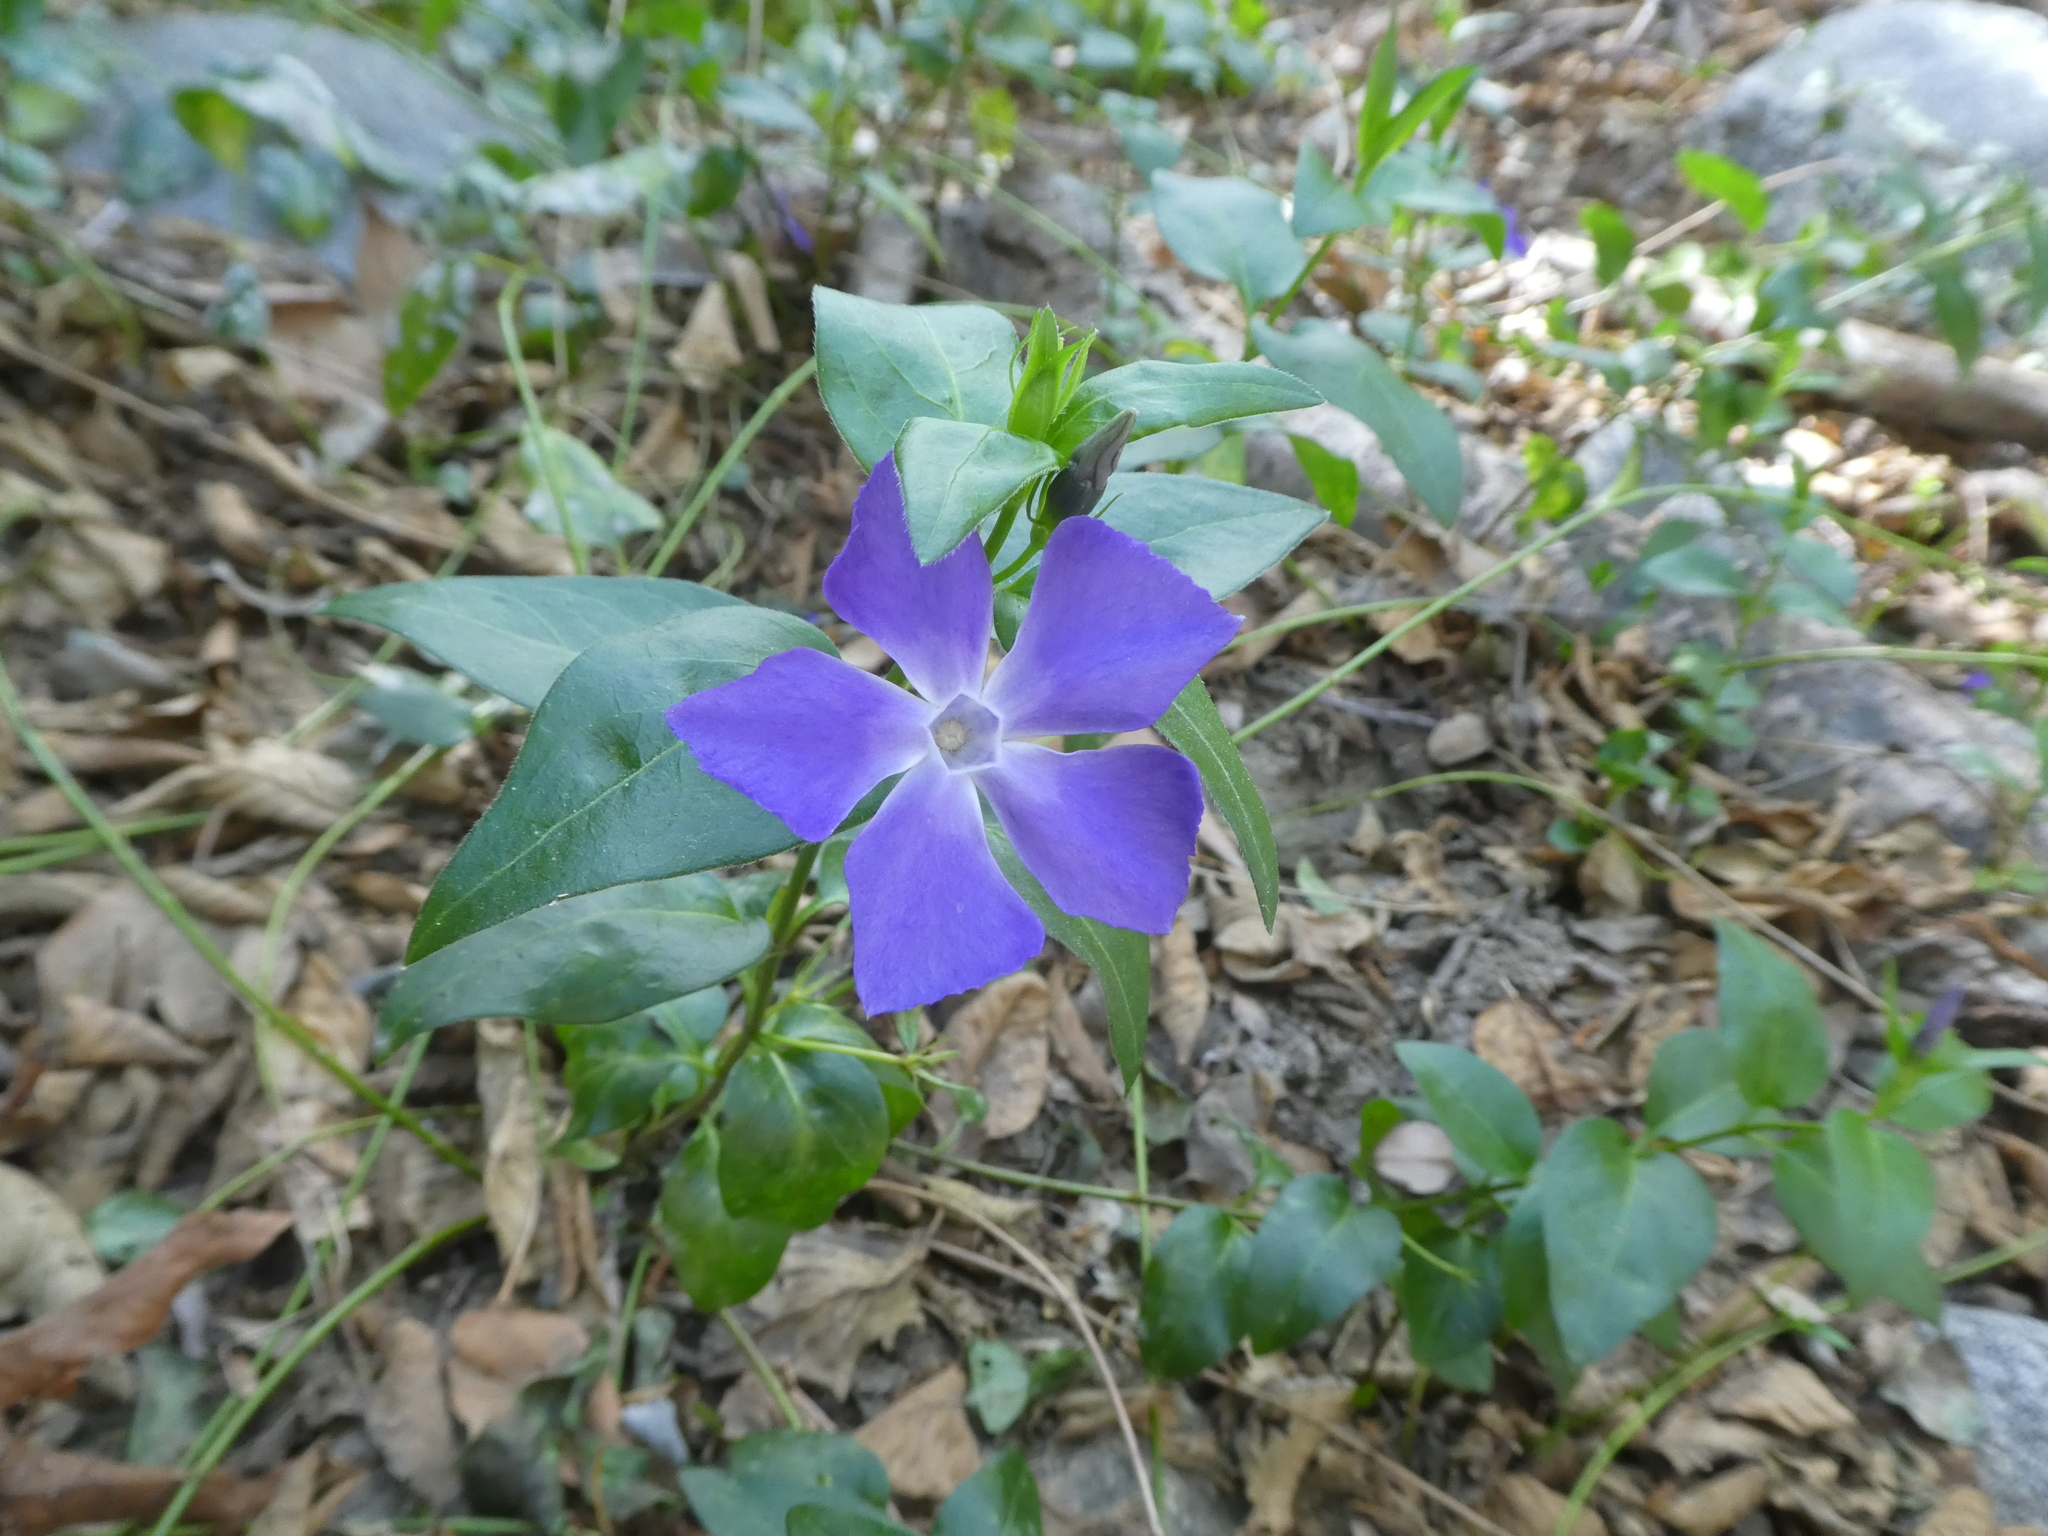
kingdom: Plantae
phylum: Tracheophyta
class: Magnoliopsida
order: Gentianales
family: Apocynaceae
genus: Vinca
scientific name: Vinca major
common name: Greater periwinkle
